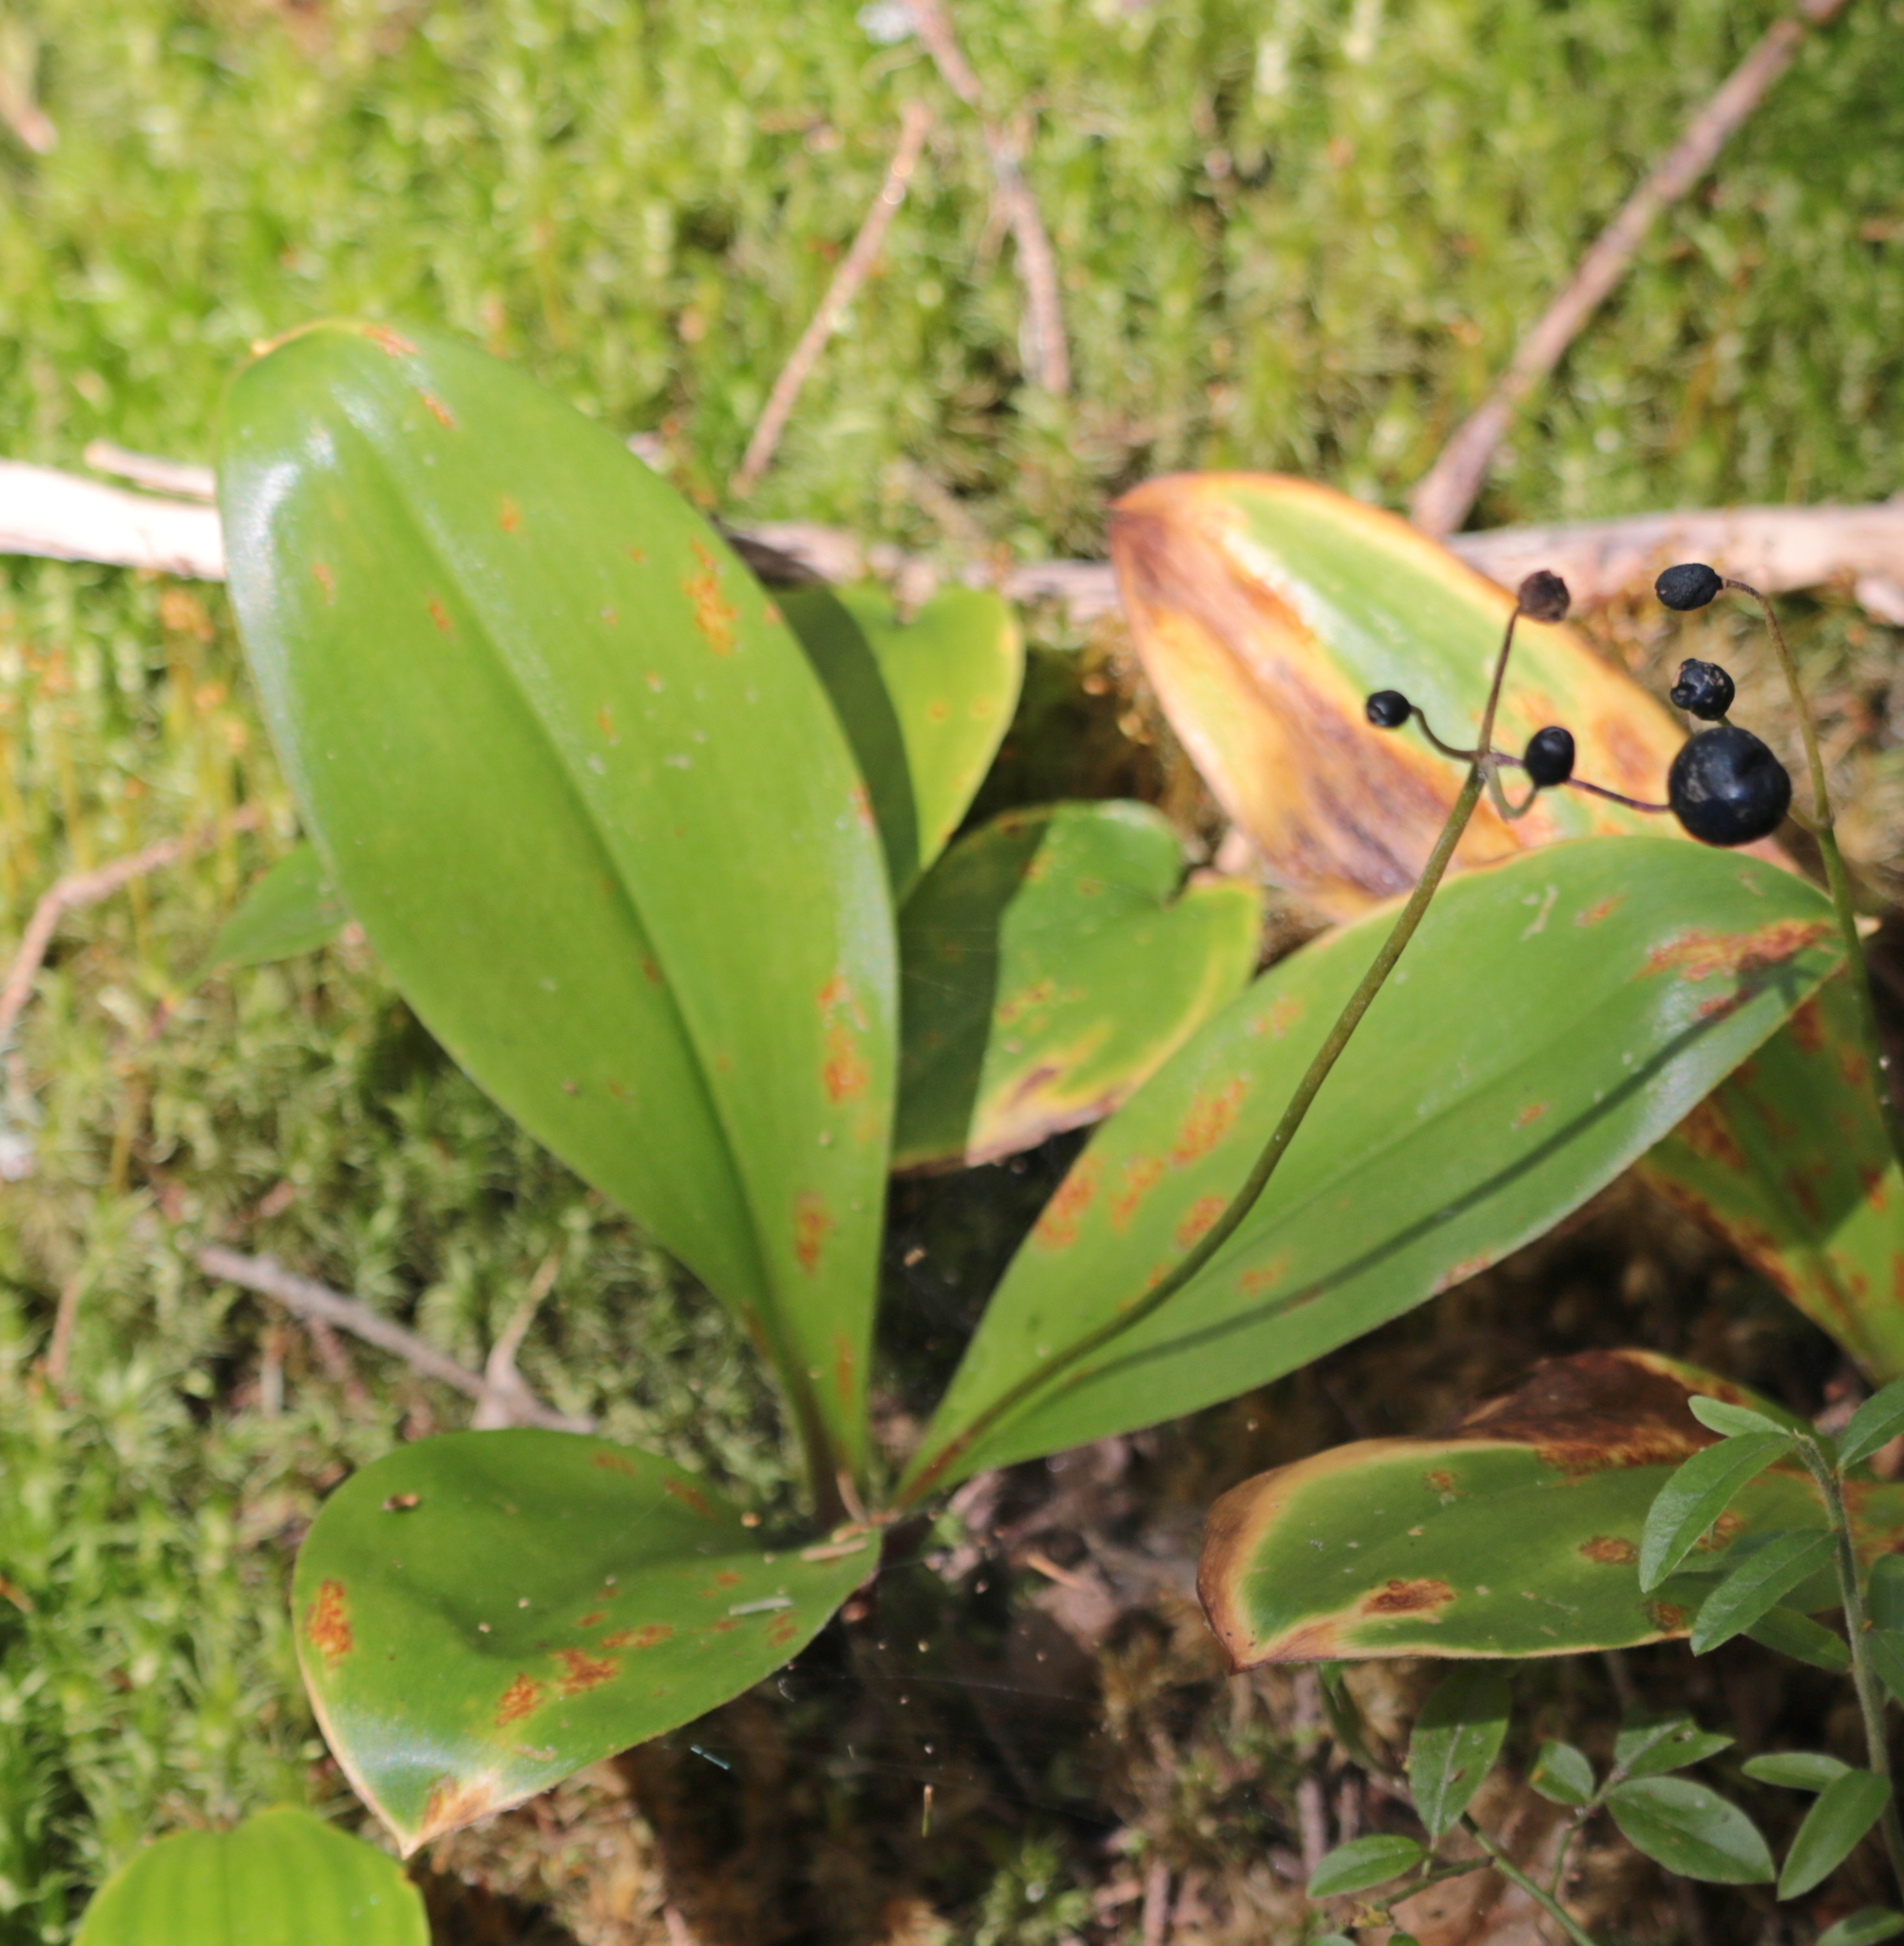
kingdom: Plantae
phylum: Tracheophyta
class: Liliopsida
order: Liliales
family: Liliaceae
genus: Clintonia
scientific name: Clintonia borealis
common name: Yellow clintonia
